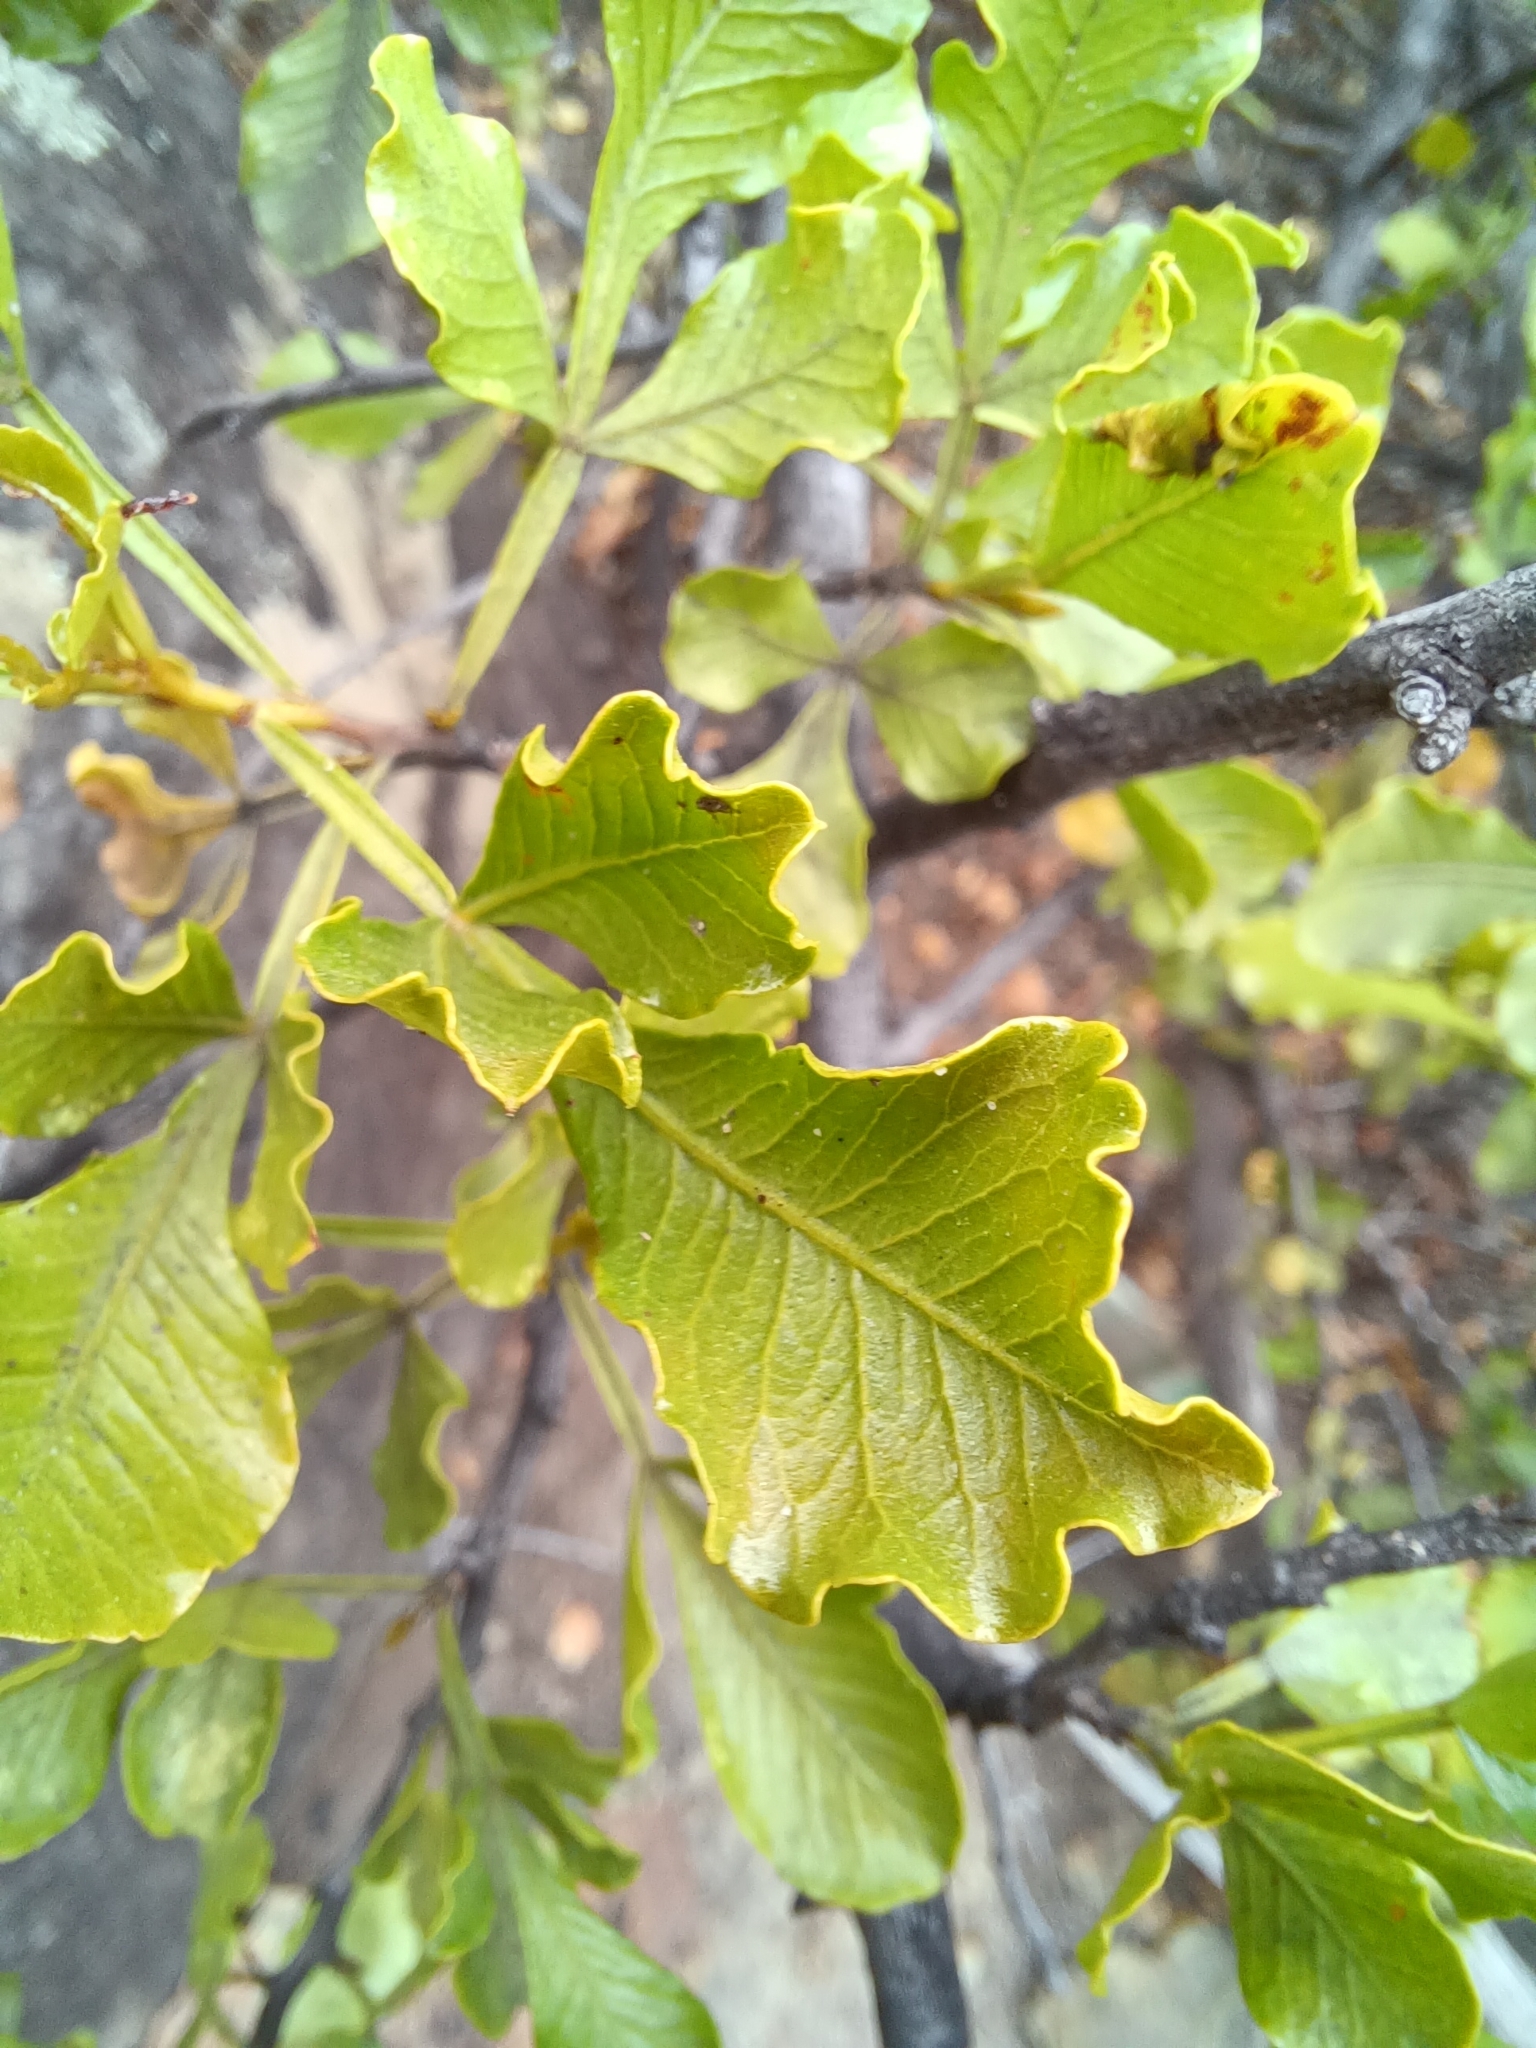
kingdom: Plantae
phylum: Tracheophyta
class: Magnoliopsida
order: Sapindales
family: Anacardiaceae
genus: Searsia
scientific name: Searsia undulata
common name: Namaqua kunibush
